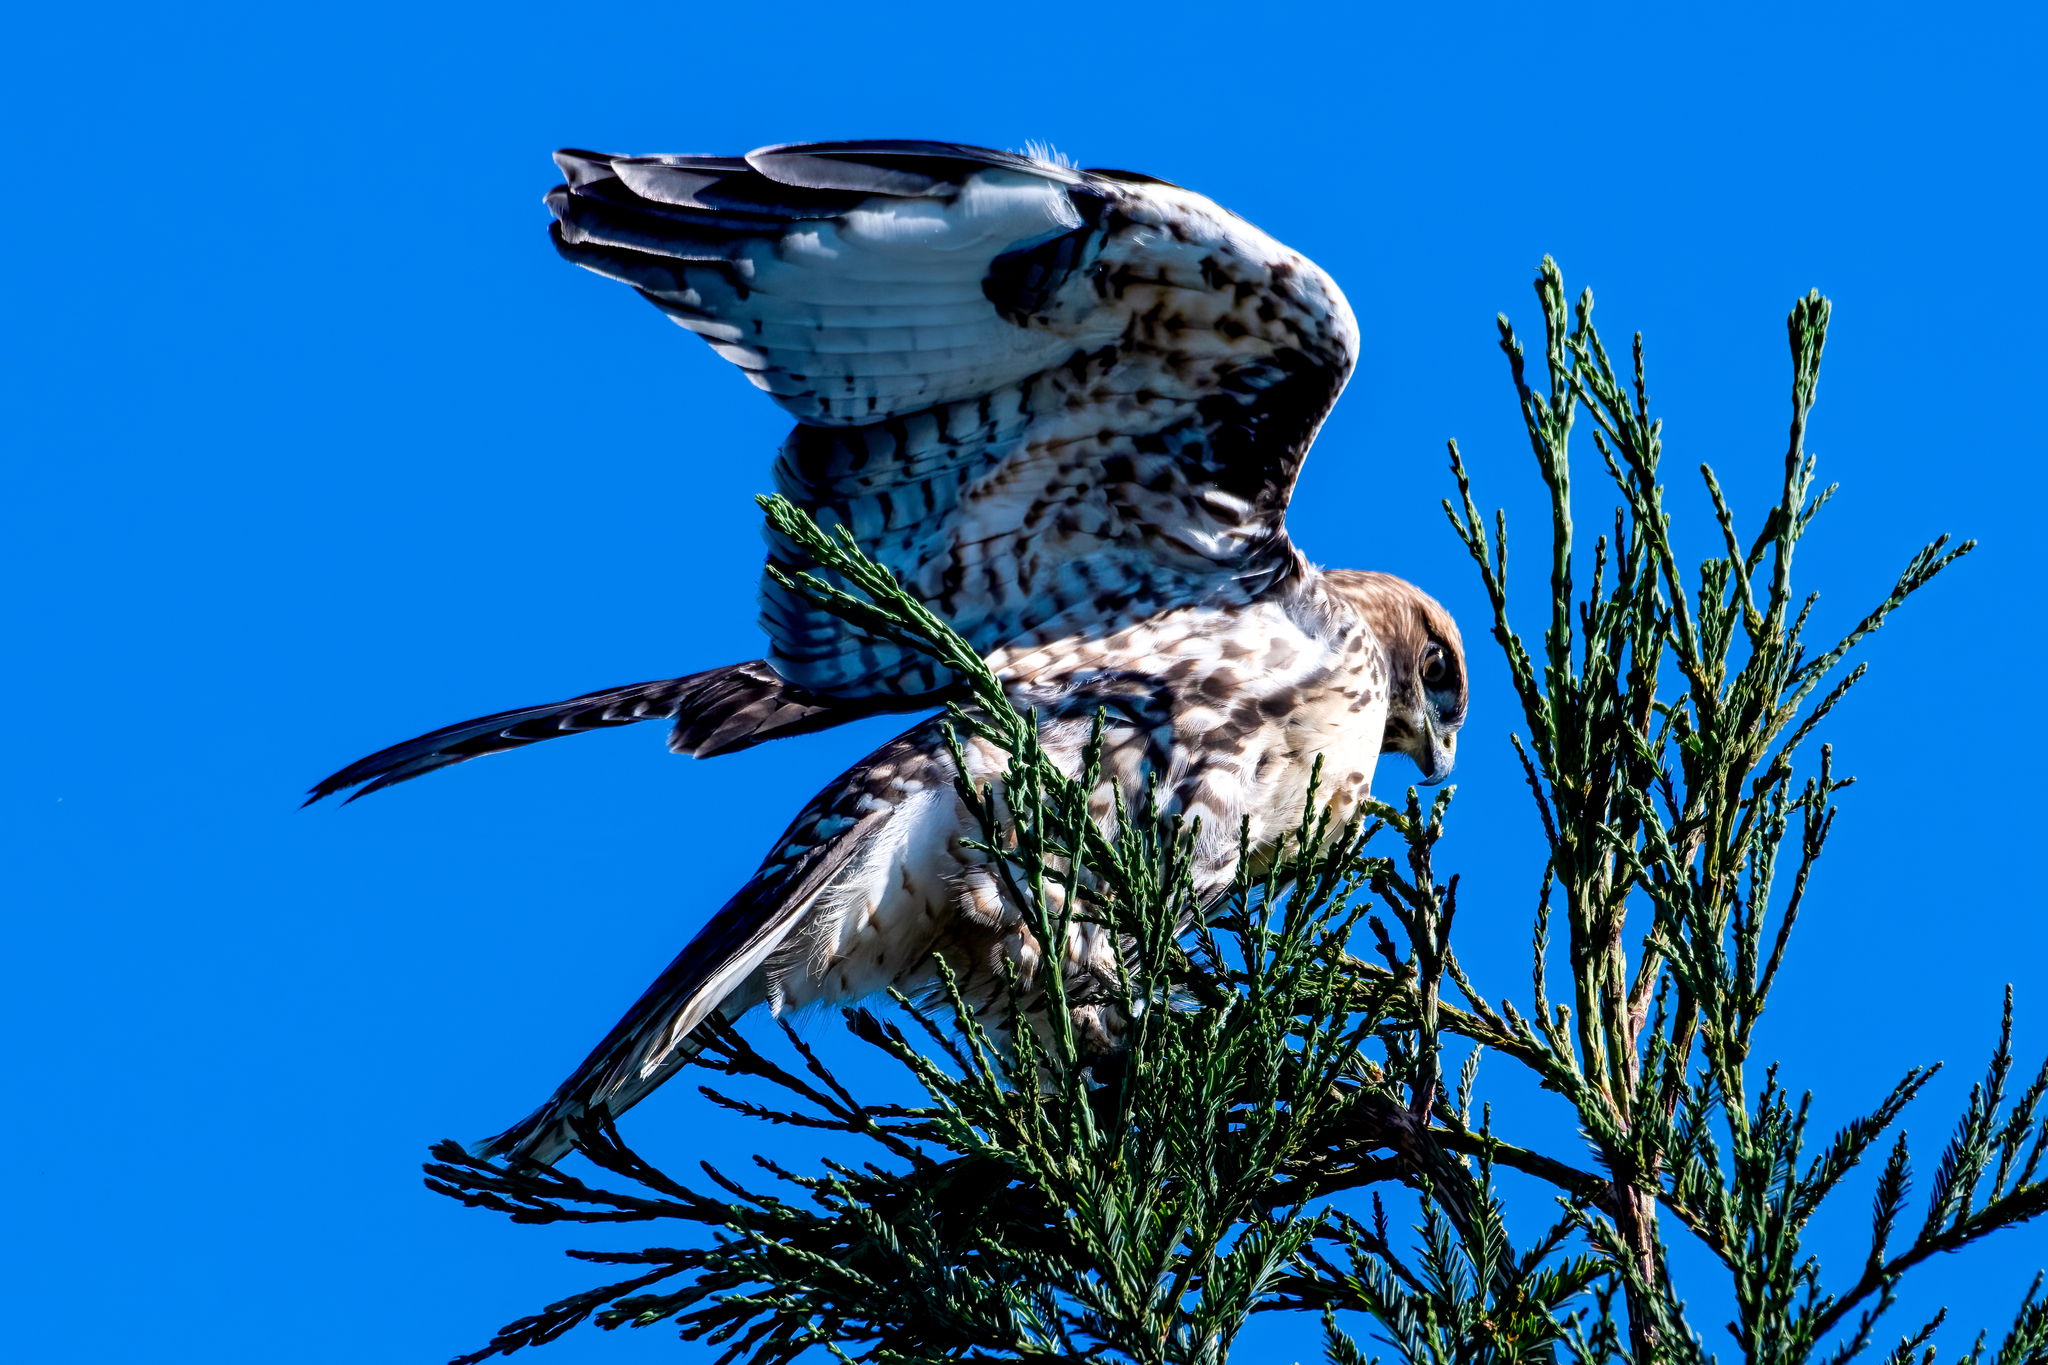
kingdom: Animalia
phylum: Chordata
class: Aves
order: Accipitriformes
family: Accipitridae
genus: Buteo
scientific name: Buteo jamaicensis
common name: Red-tailed hawk
